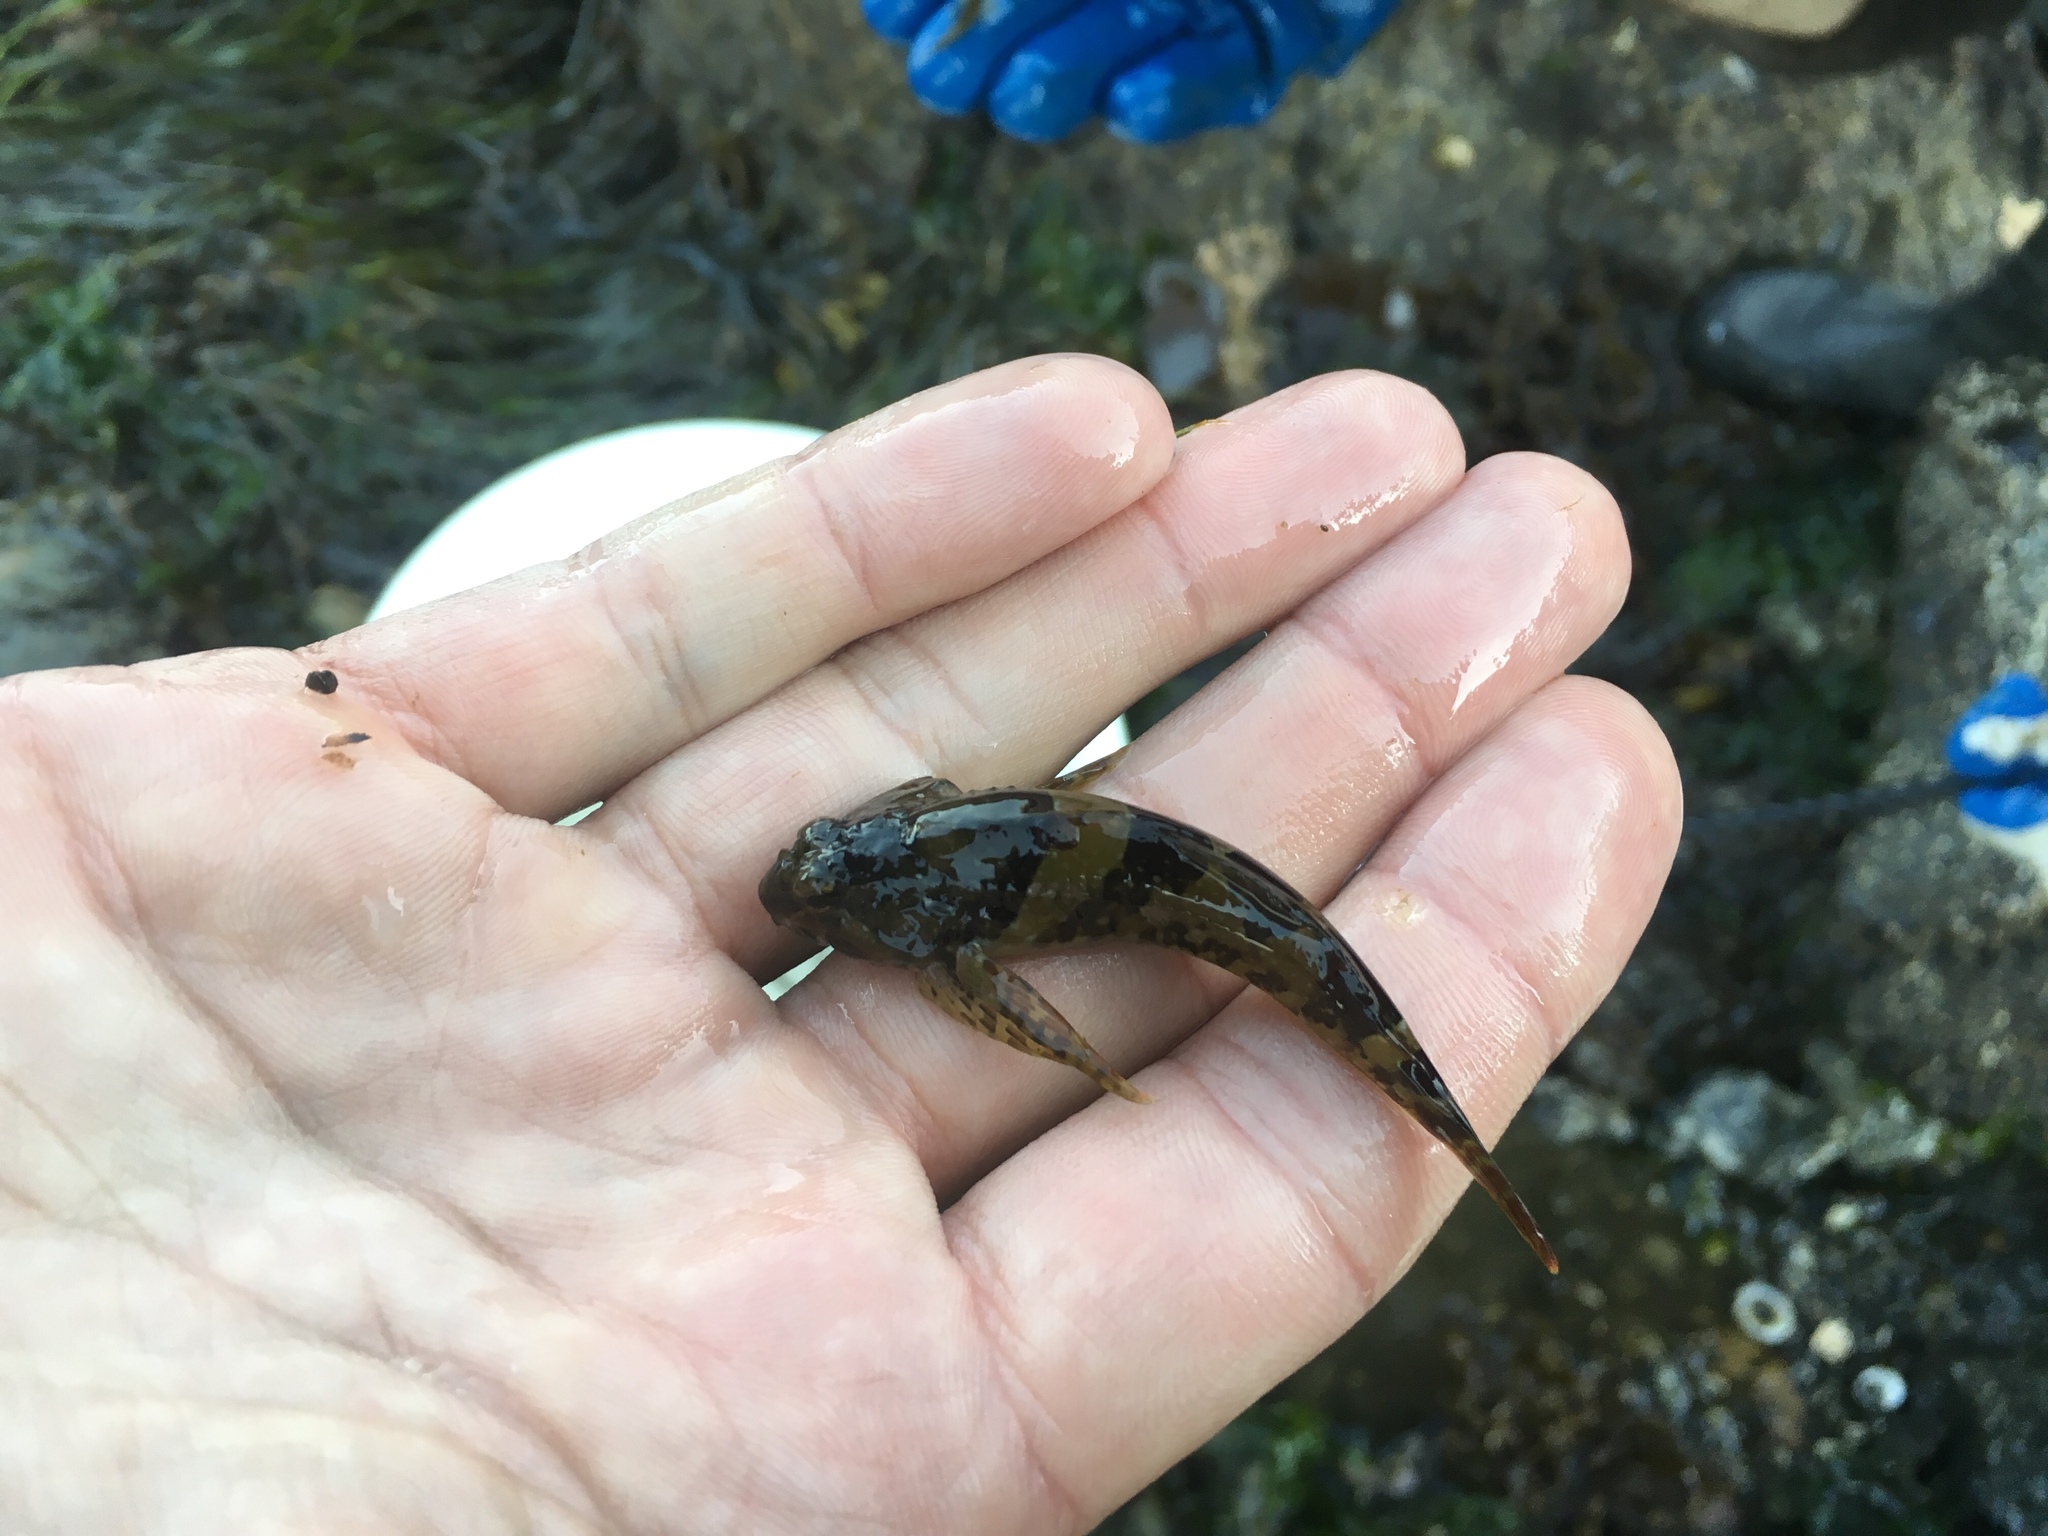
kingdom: Animalia
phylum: Chordata
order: Scorpaeniformes
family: Cottidae
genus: Oligocottus
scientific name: Oligocottus maculosus
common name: Tidepool sculpin
